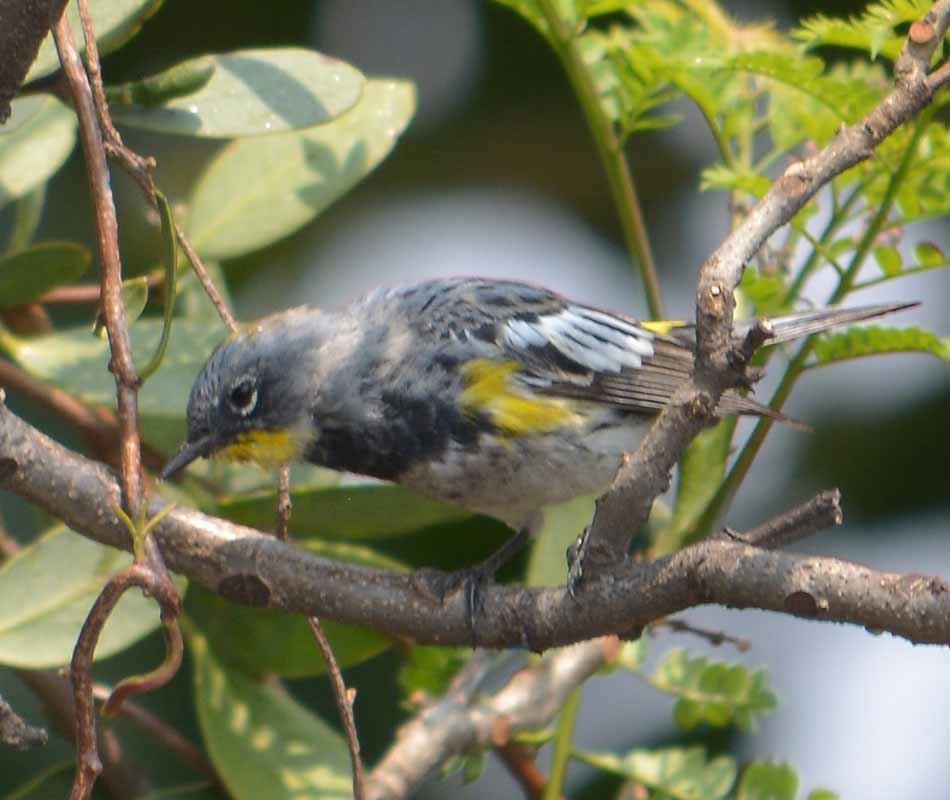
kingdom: Animalia
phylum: Chordata
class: Aves
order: Passeriformes
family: Parulidae
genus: Setophaga
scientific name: Setophaga coronata
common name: Myrtle warbler
